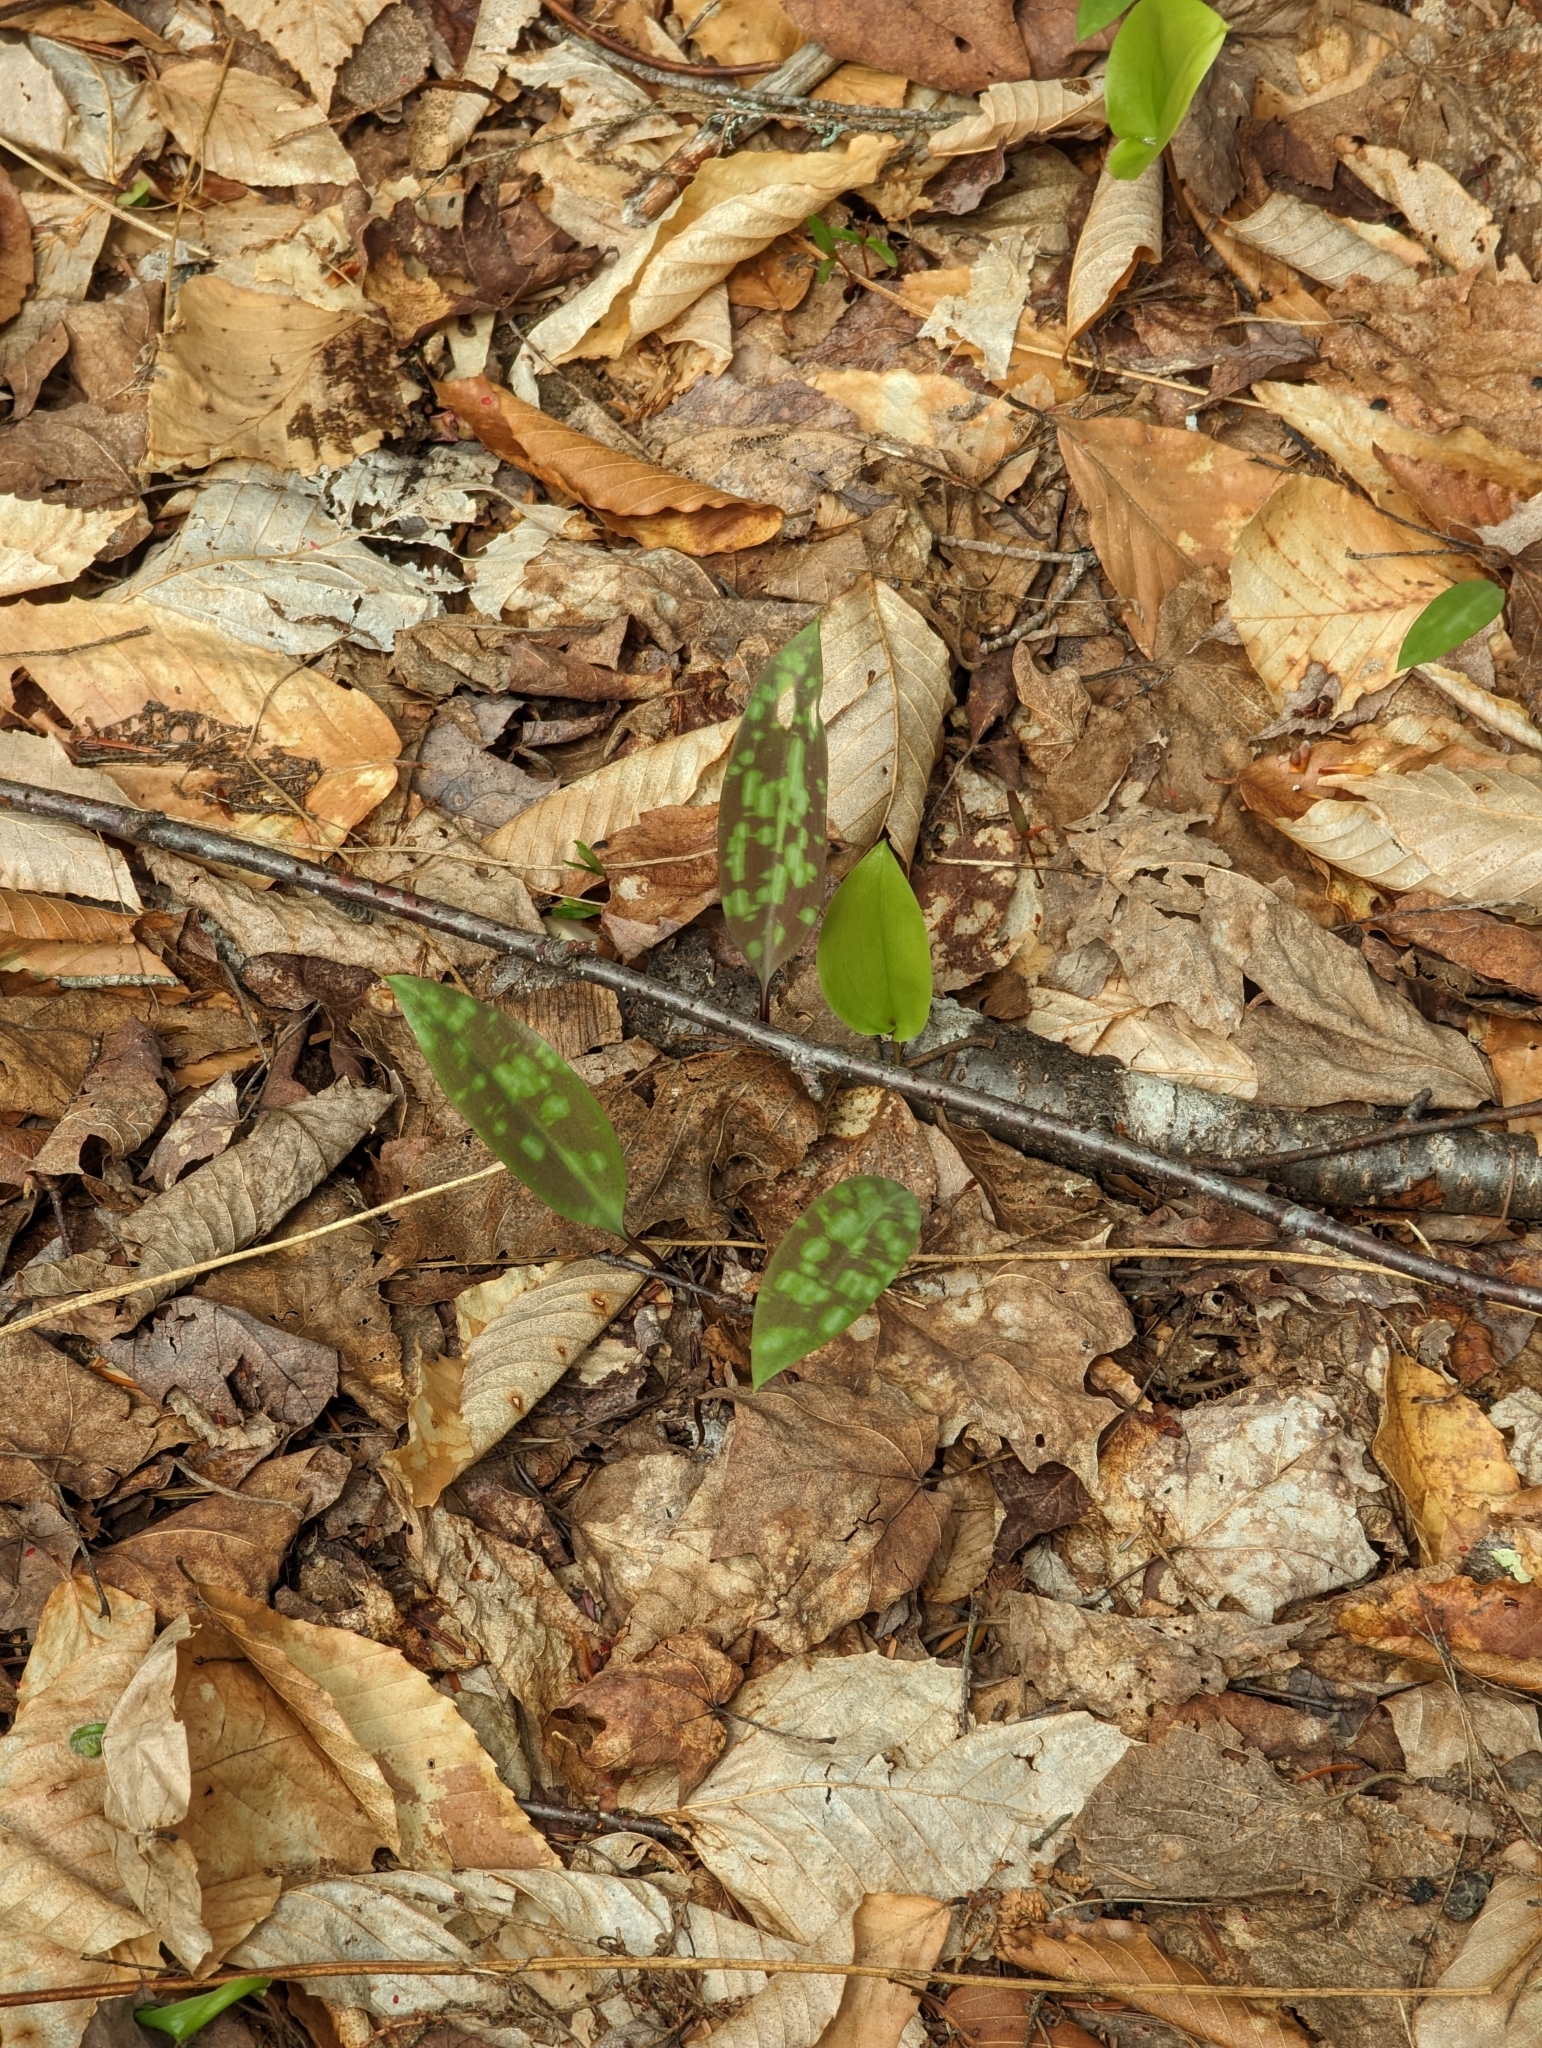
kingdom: Plantae
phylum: Tracheophyta
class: Liliopsida
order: Liliales
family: Liliaceae
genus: Erythronium
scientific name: Erythronium americanum
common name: Yellow adder's-tongue
